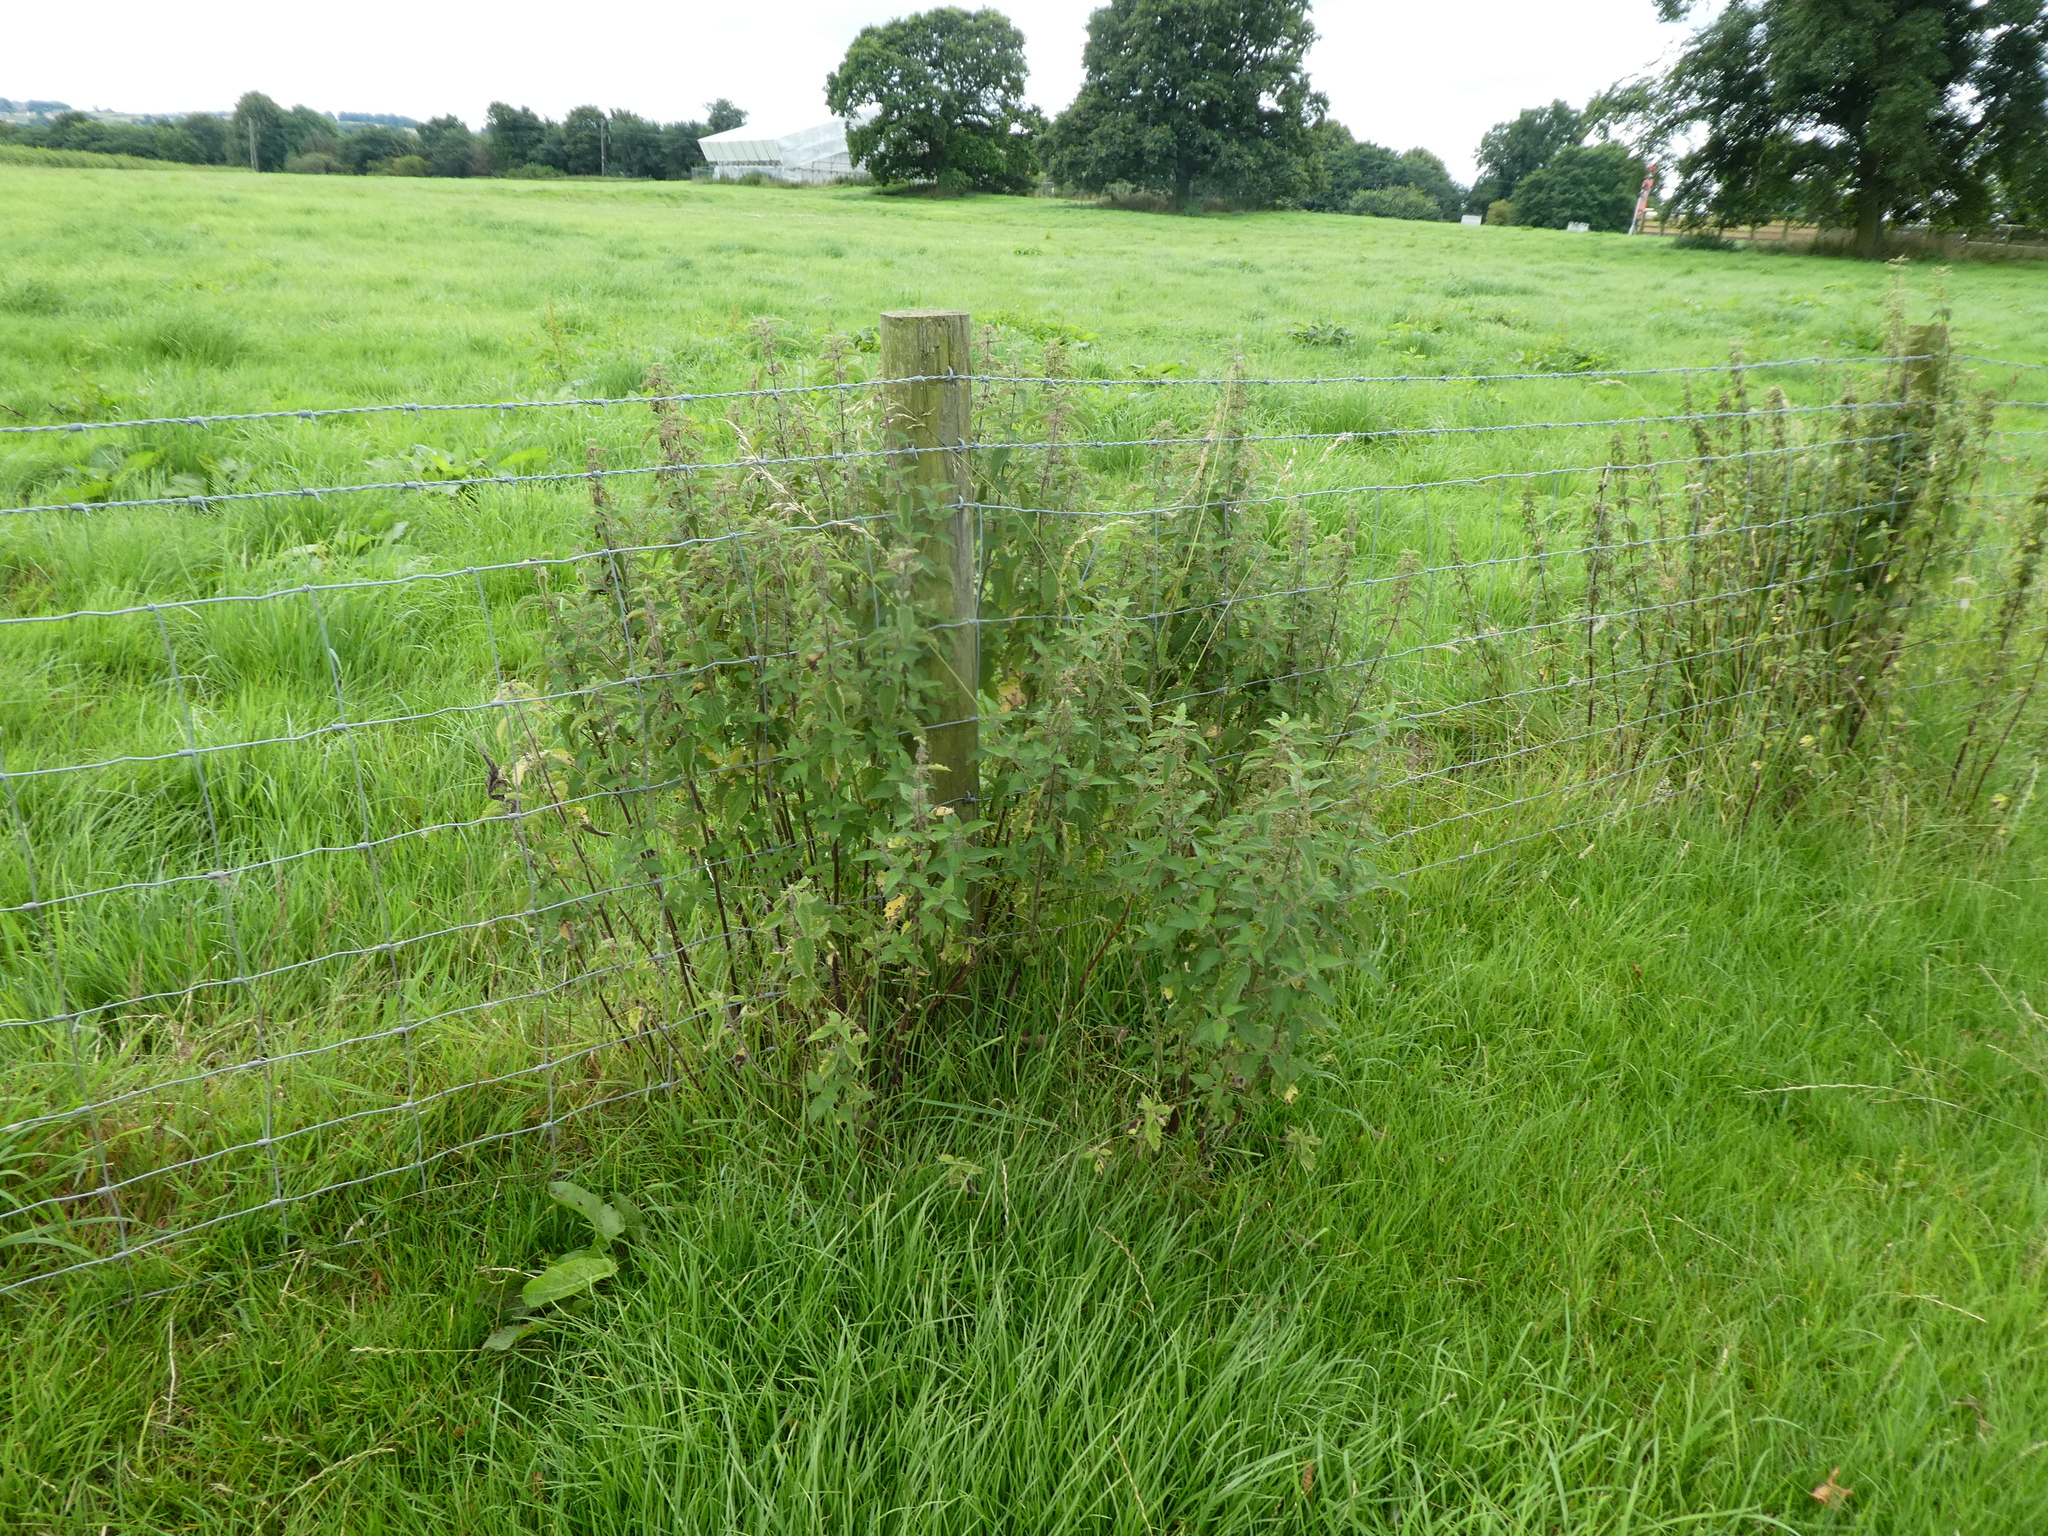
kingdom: Plantae
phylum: Tracheophyta
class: Magnoliopsida
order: Rosales
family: Urticaceae
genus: Urtica
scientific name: Urtica dioica
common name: Common nettle
